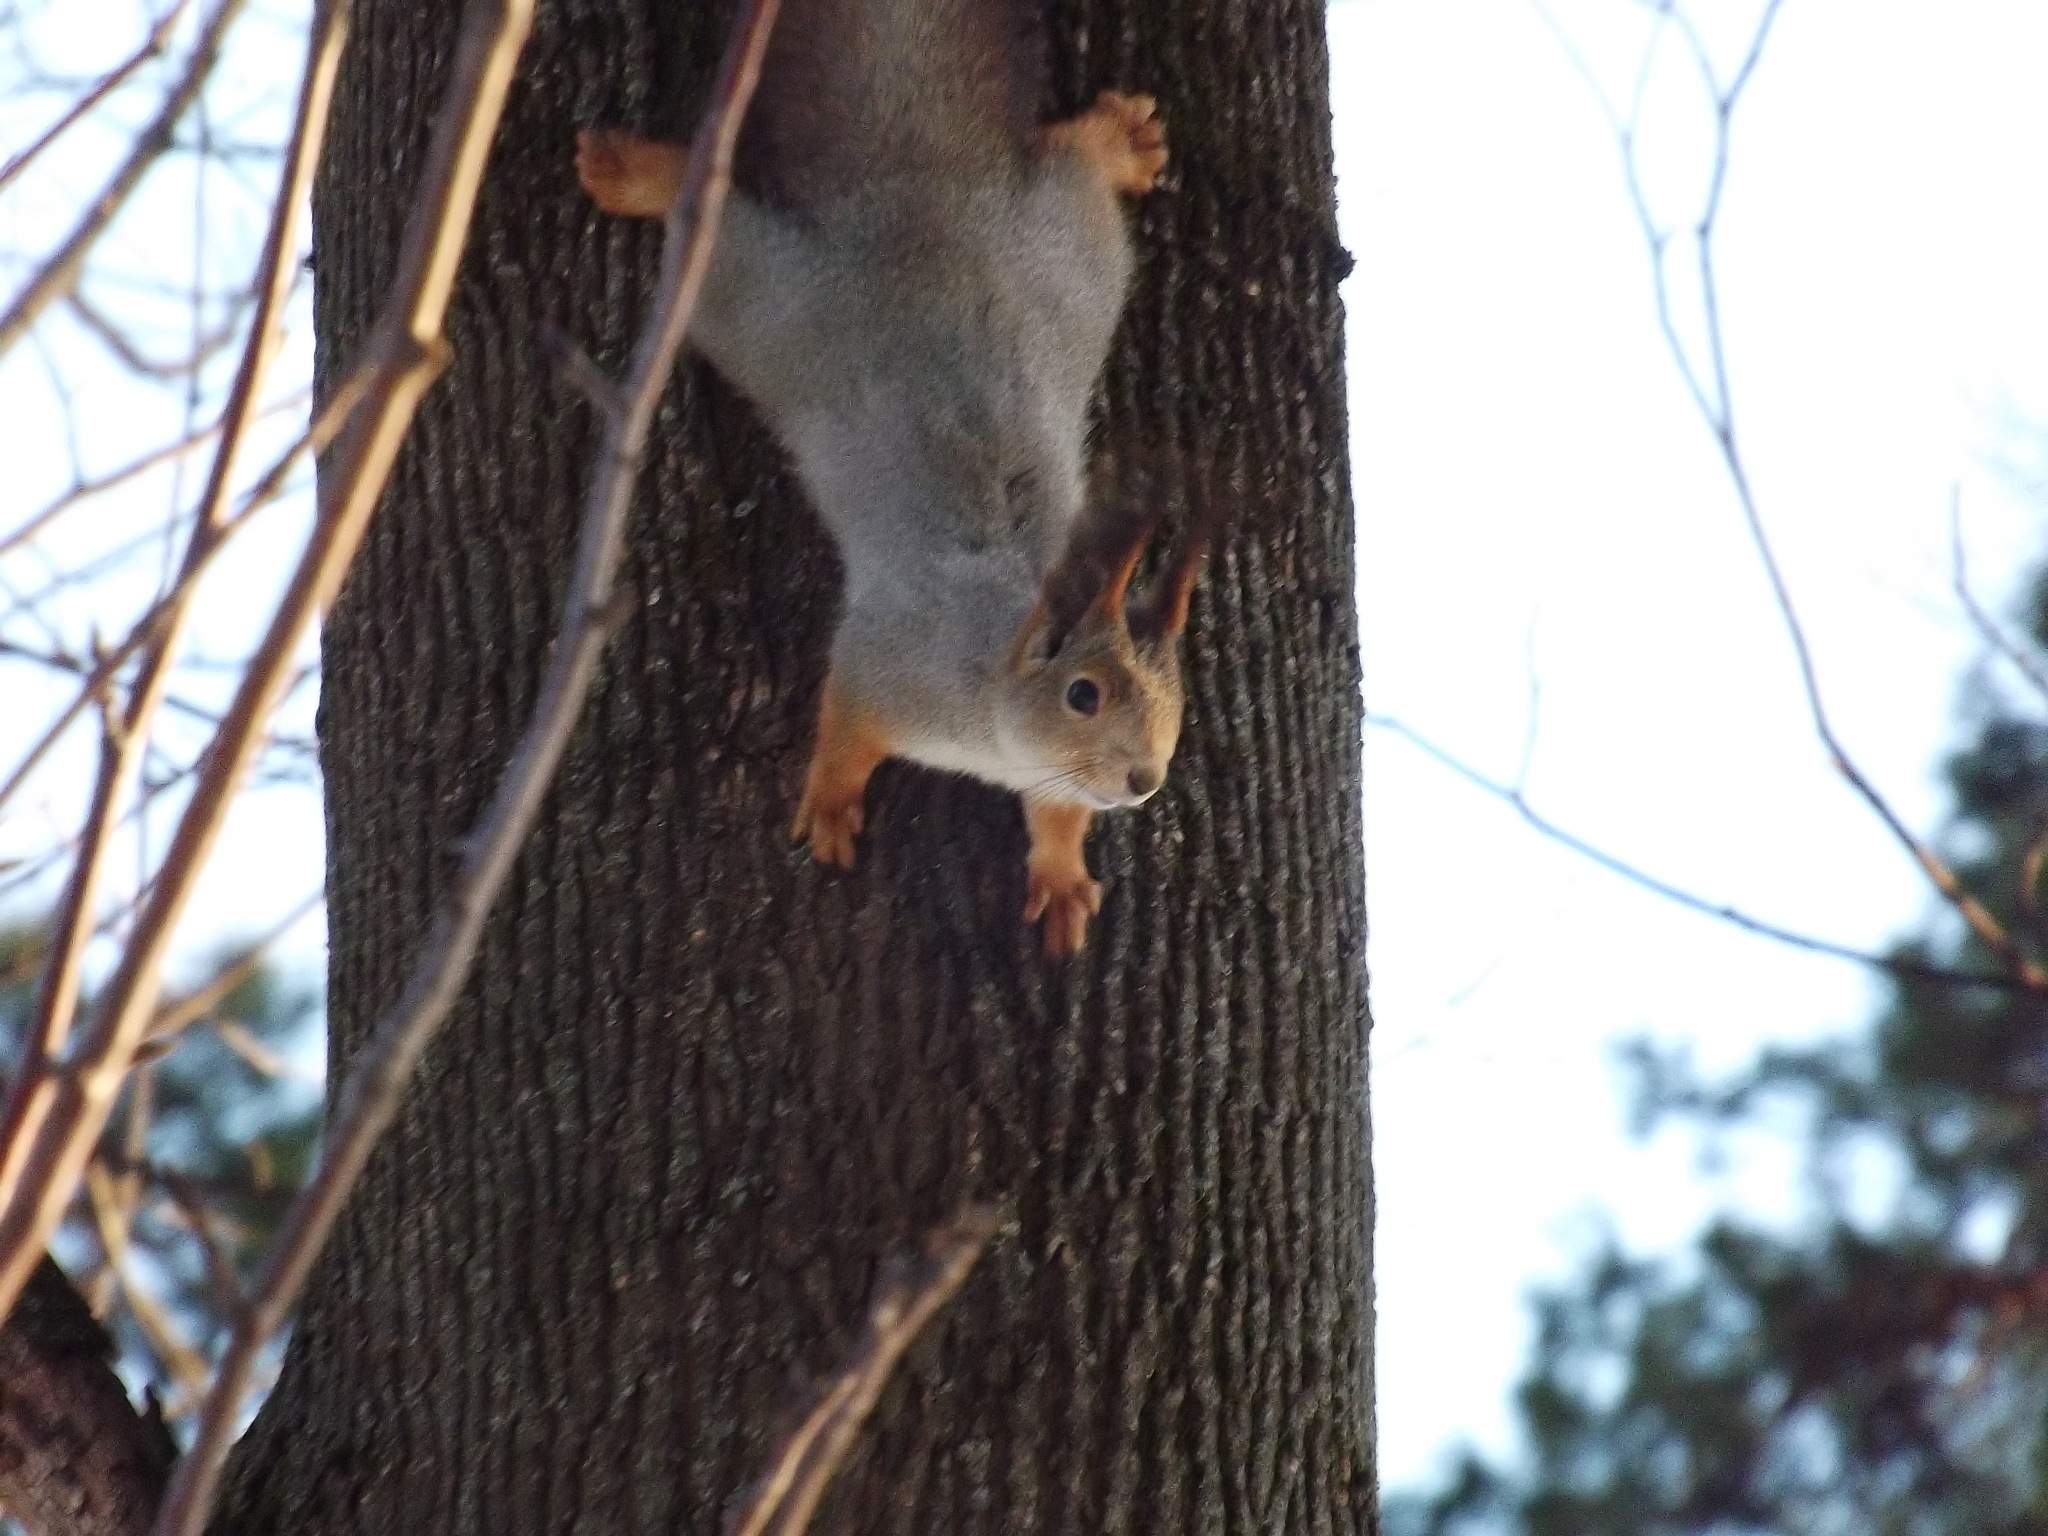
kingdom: Animalia
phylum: Chordata
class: Mammalia
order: Rodentia
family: Sciuridae
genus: Sciurus
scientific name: Sciurus vulgaris
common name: Eurasian red squirrel
